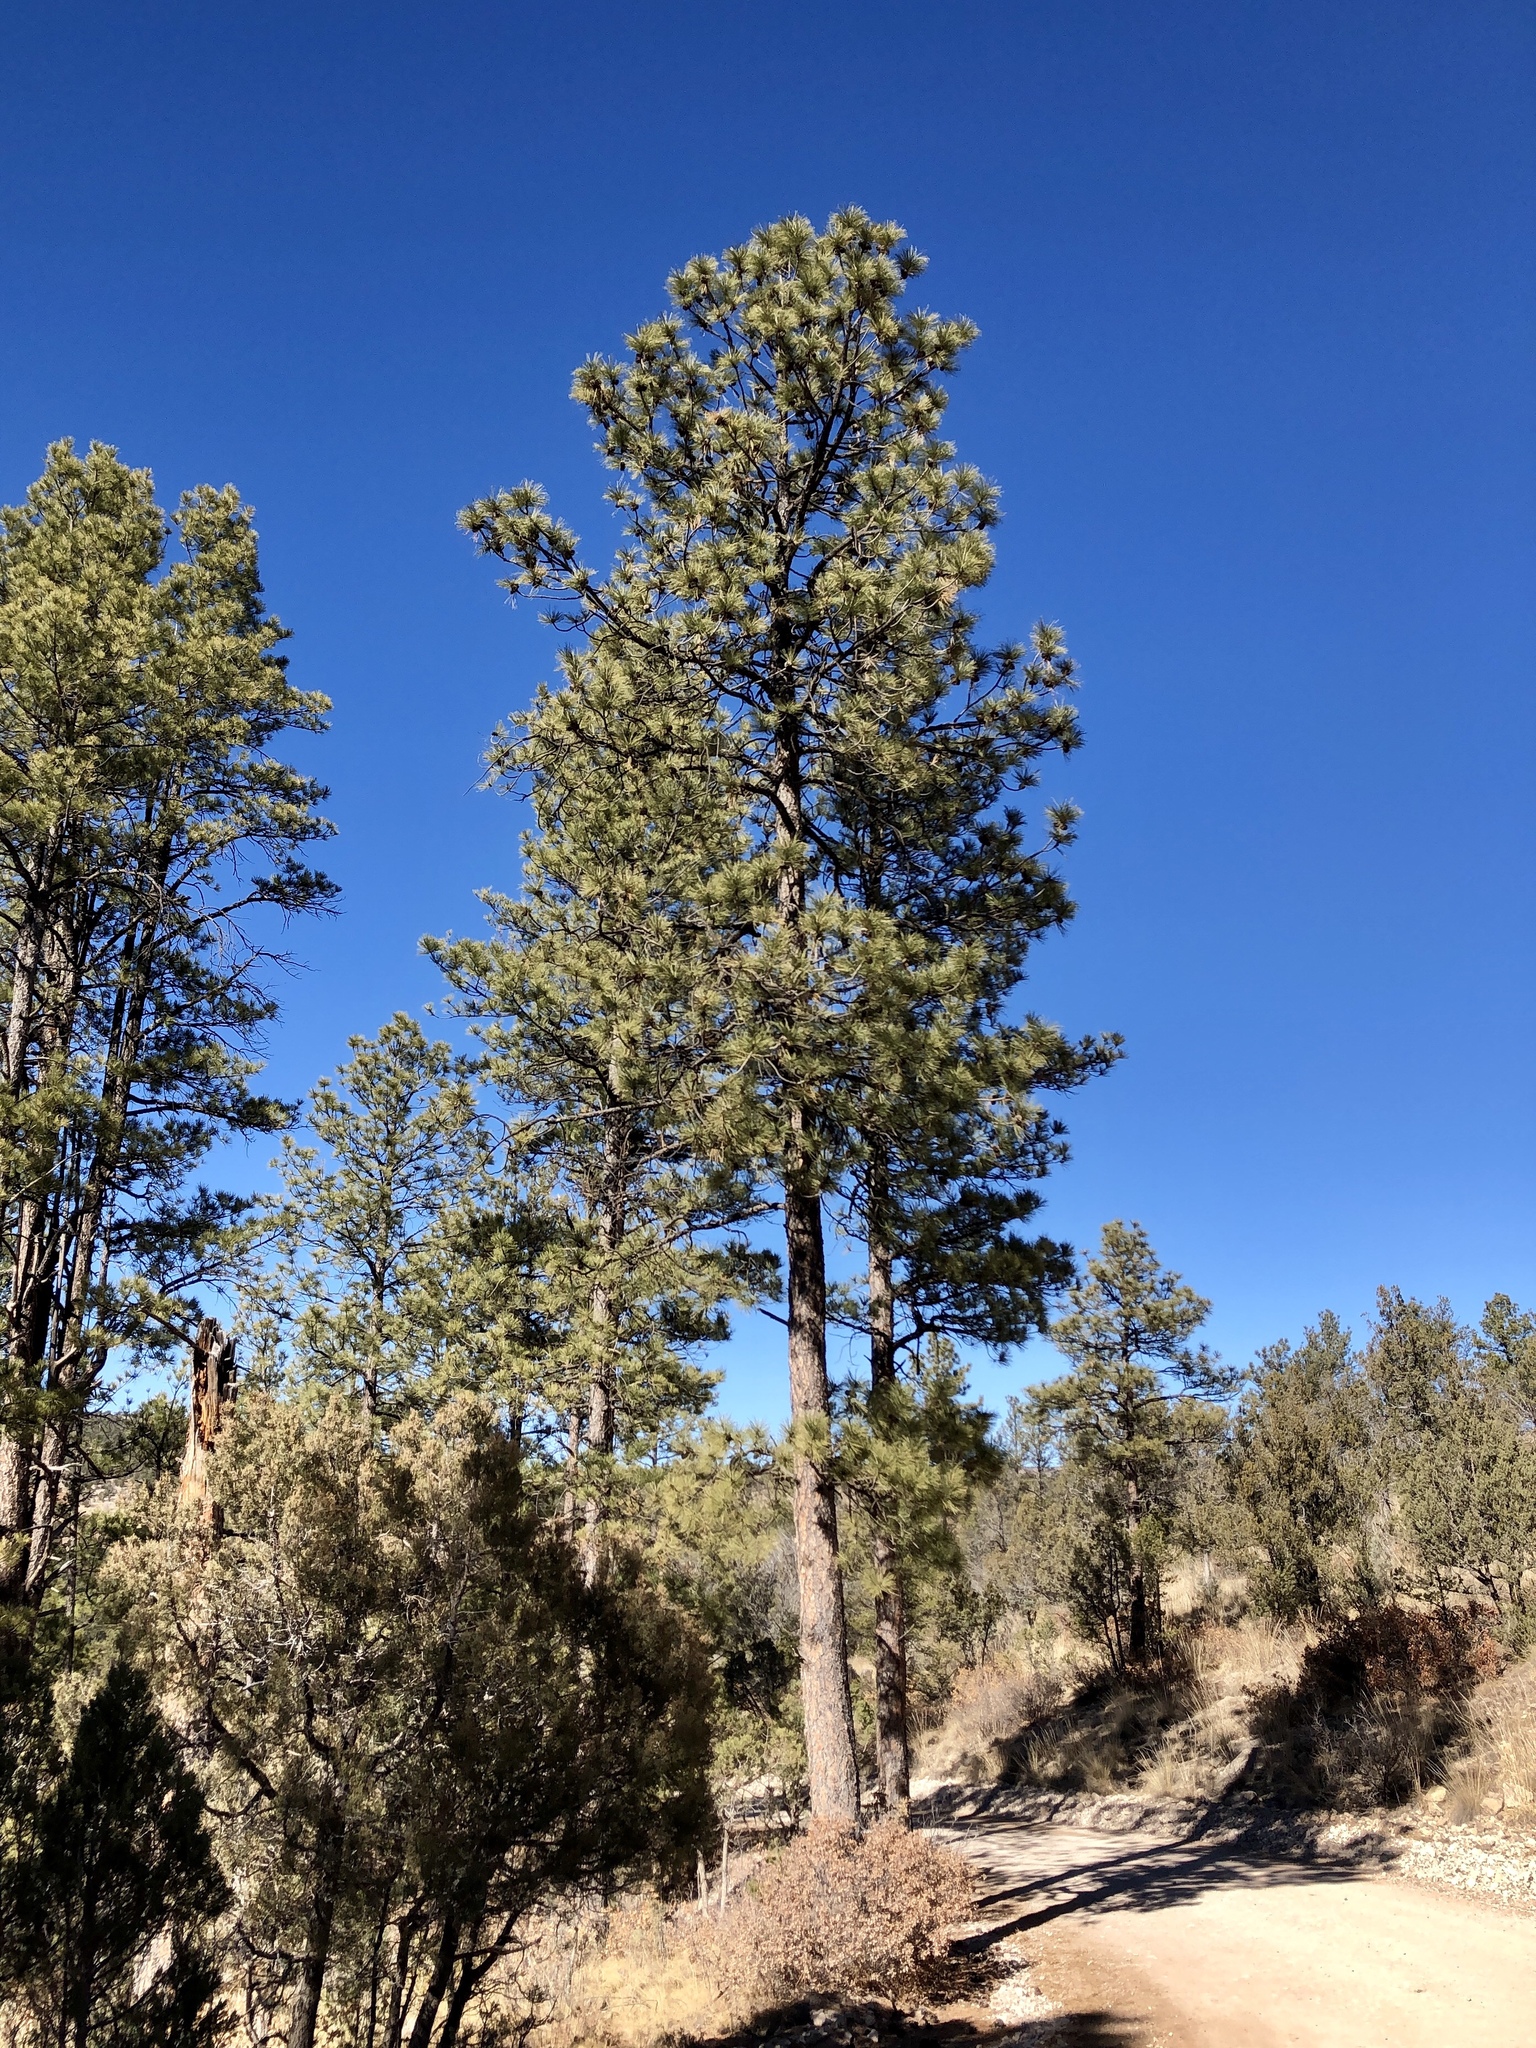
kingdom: Plantae
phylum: Tracheophyta
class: Pinopsida
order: Pinales
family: Pinaceae
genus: Pinus
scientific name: Pinus ponderosa
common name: Western yellow-pine
